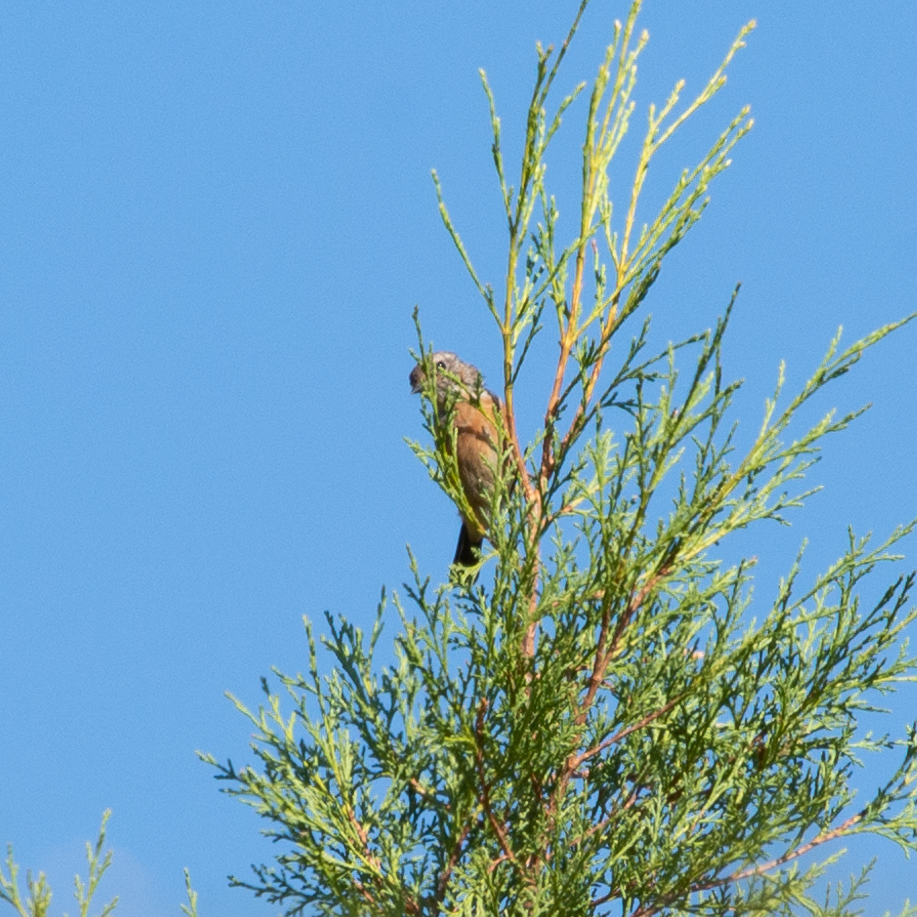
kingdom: Animalia
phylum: Chordata
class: Aves
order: Passeriformes
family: Muscicapidae
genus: Saxicola
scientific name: Saxicola rubicola
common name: European stonechat
